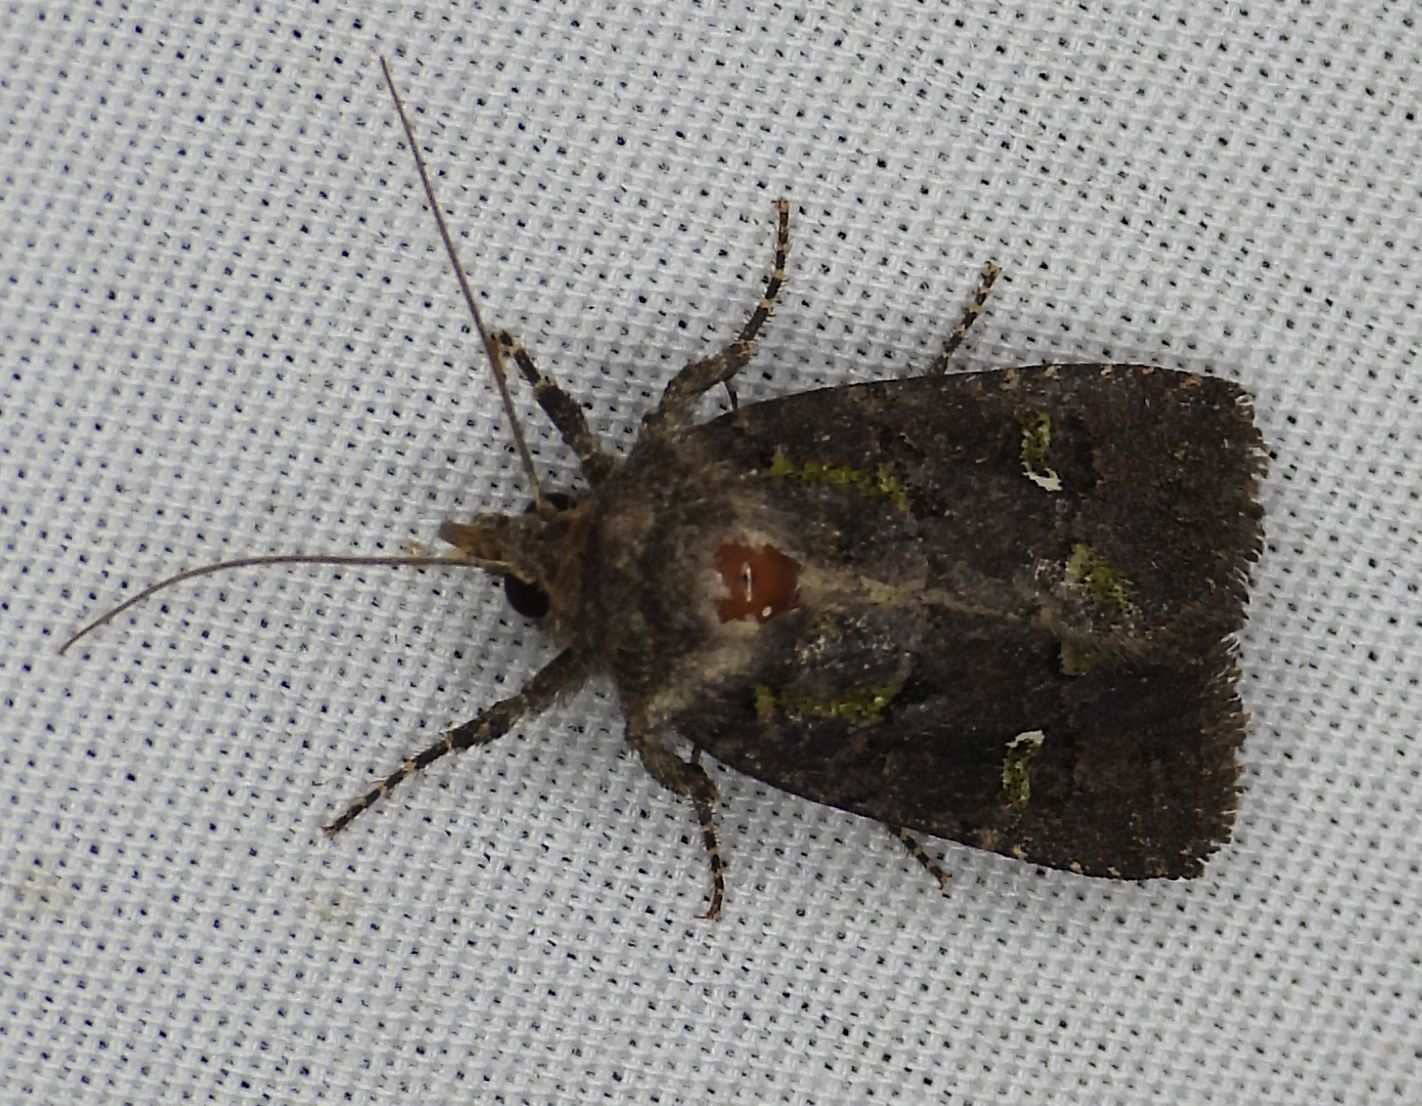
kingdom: Animalia
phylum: Arthropoda
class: Insecta
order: Lepidoptera
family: Noctuidae
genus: Lacinipolia
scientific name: Lacinipolia renigera
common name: Kidney-spotted minor
